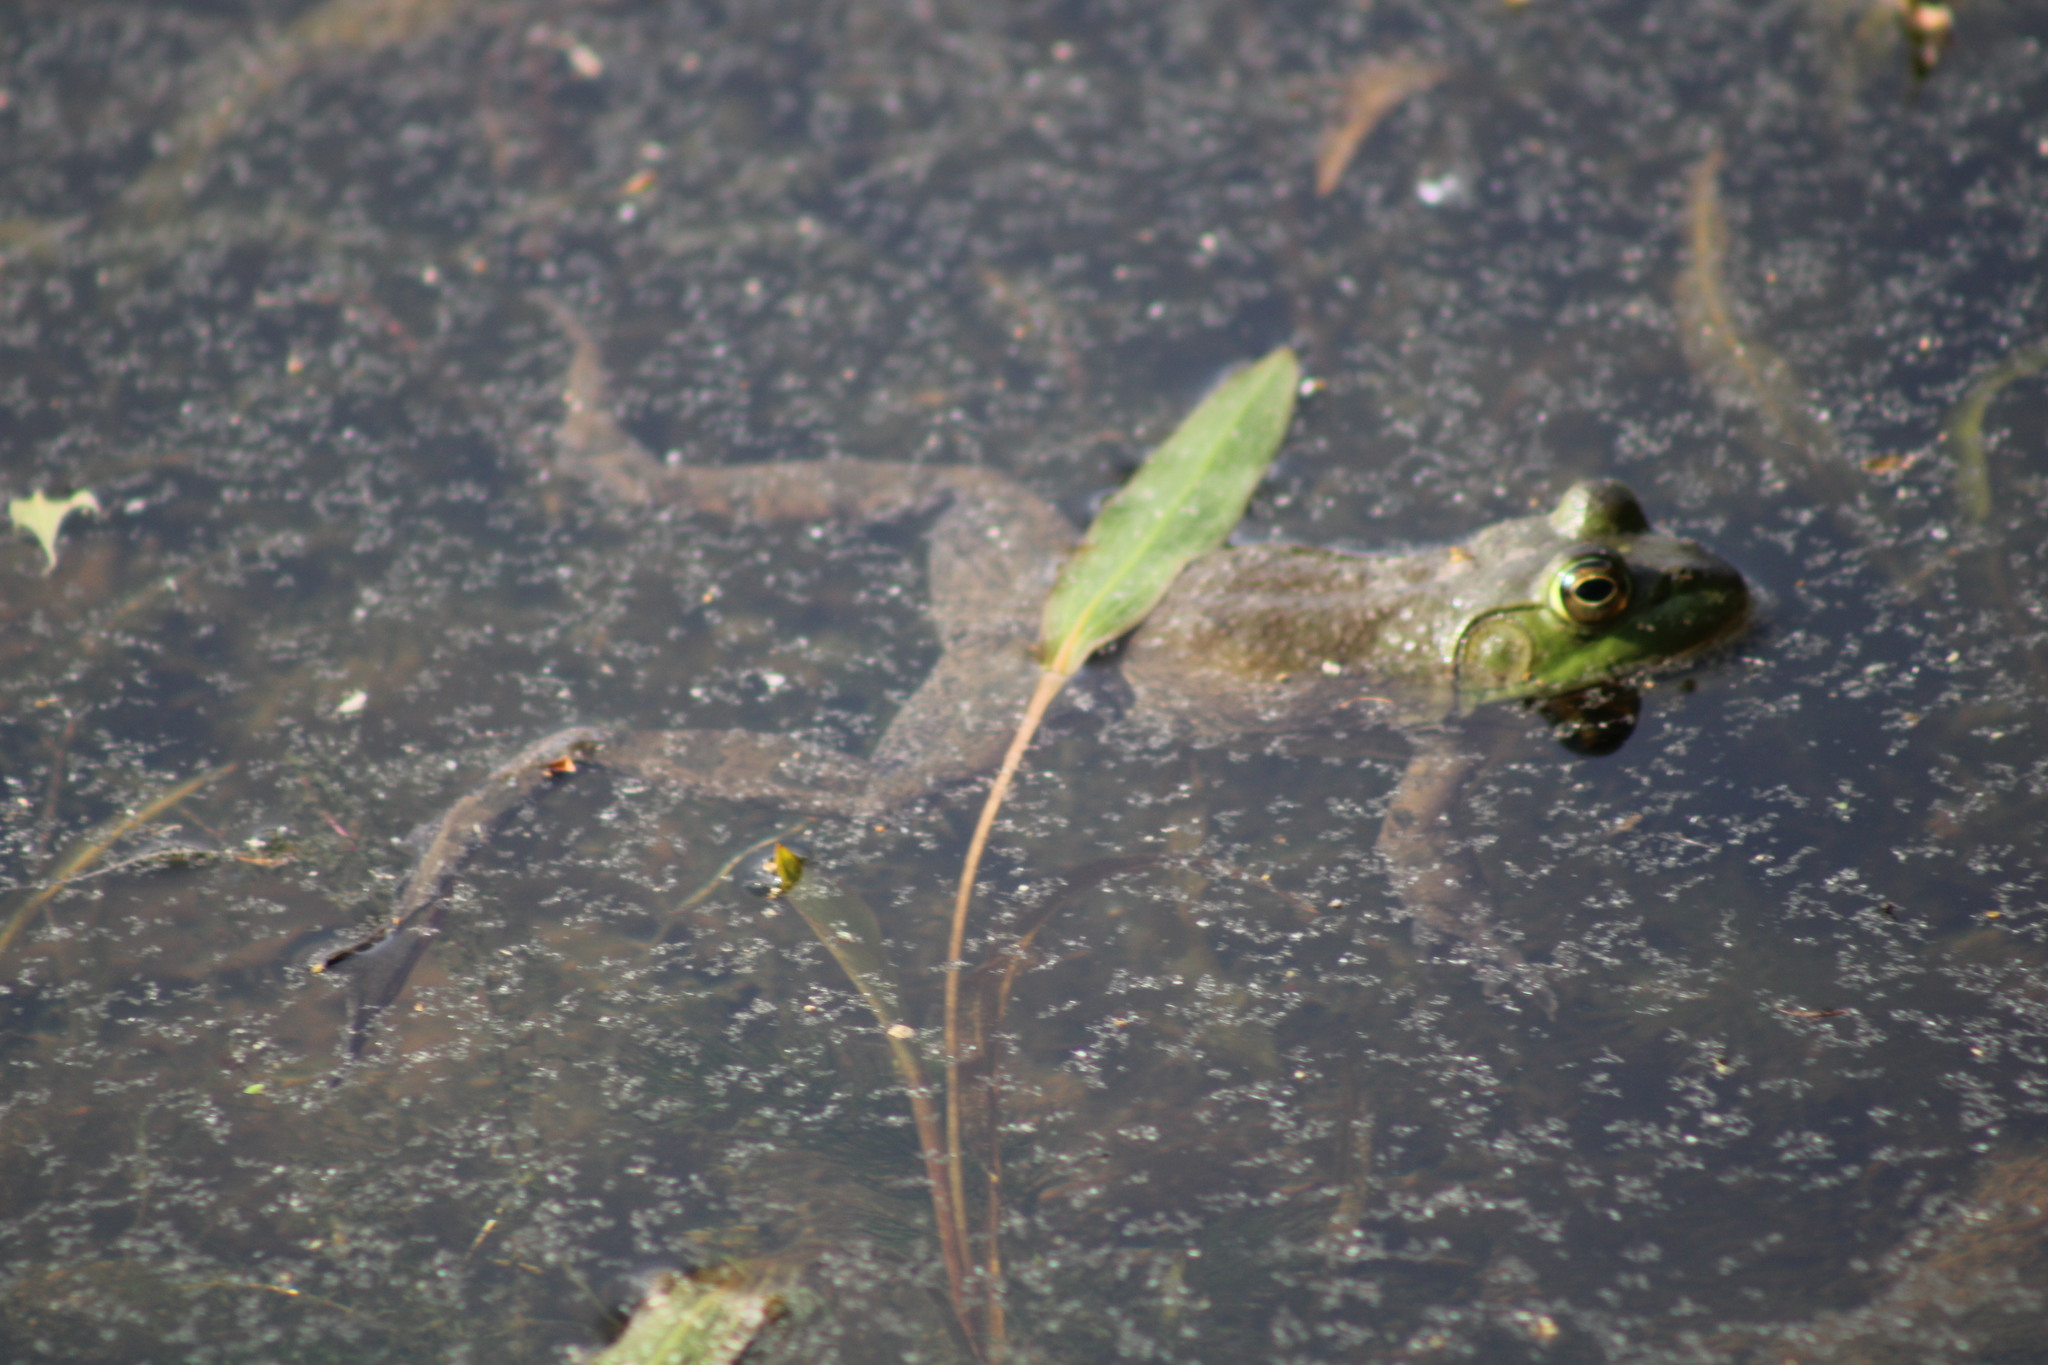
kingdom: Animalia
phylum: Chordata
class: Amphibia
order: Anura
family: Ranidae
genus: Lithobates
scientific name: Lithobates catesbeianus
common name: American bullfrog
